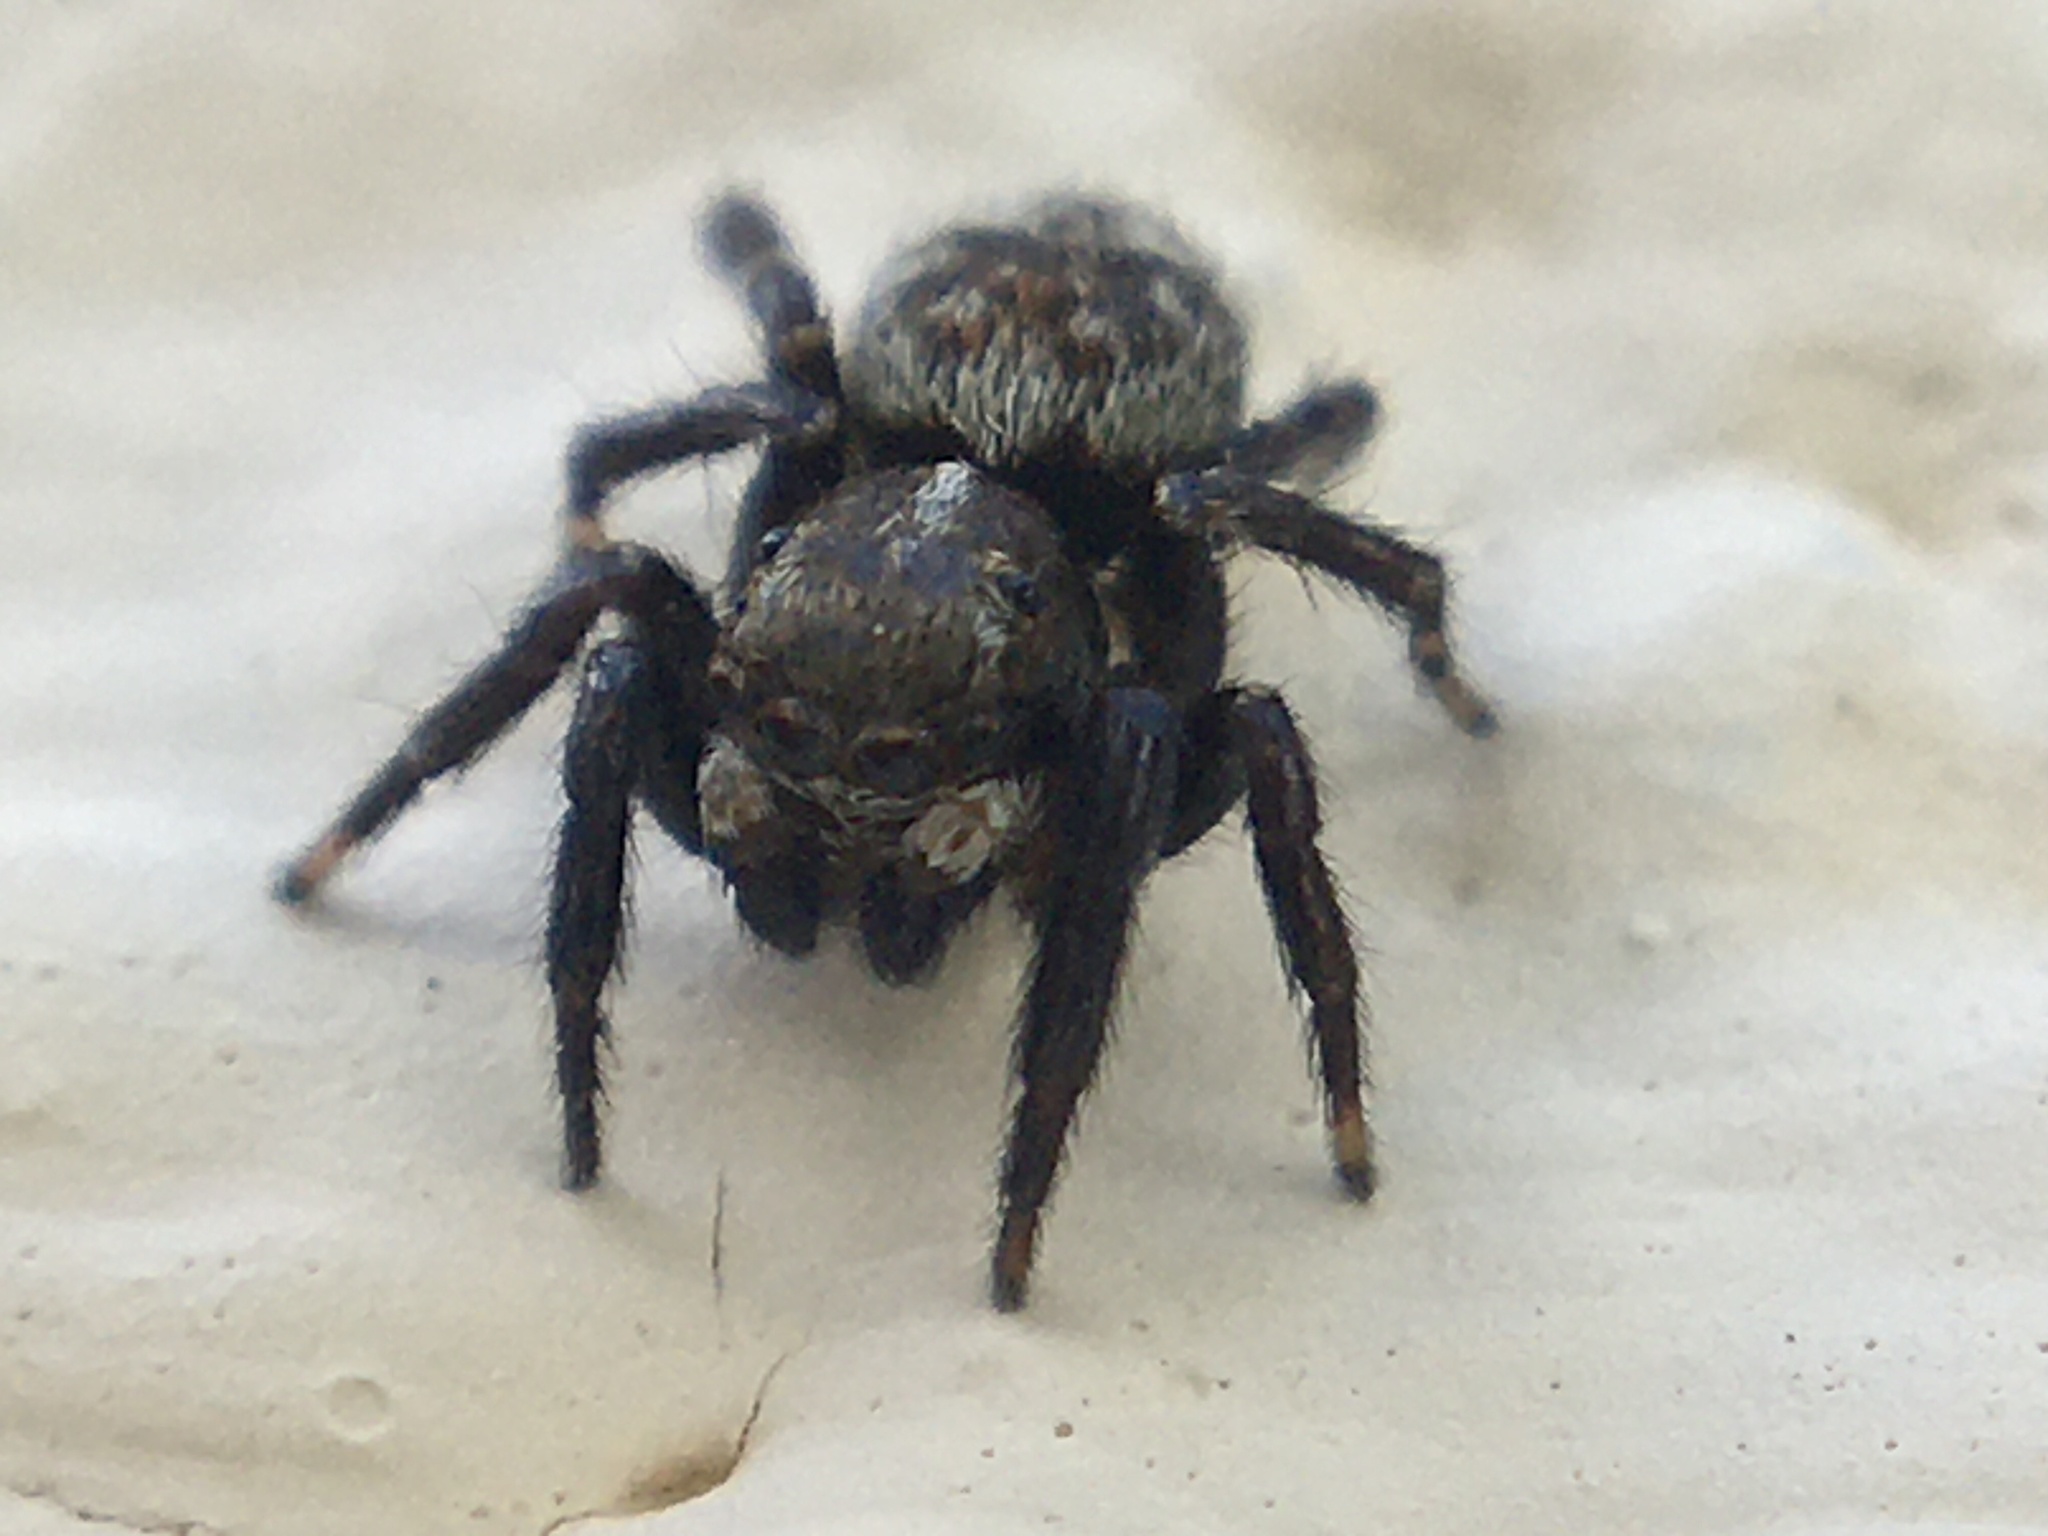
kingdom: Animalia
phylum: Arthropoda
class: Arachnida
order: Araneae
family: Salticidae
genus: Pseudeuophrys
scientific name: Pseudeuophrys erratica
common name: Jumping spider
